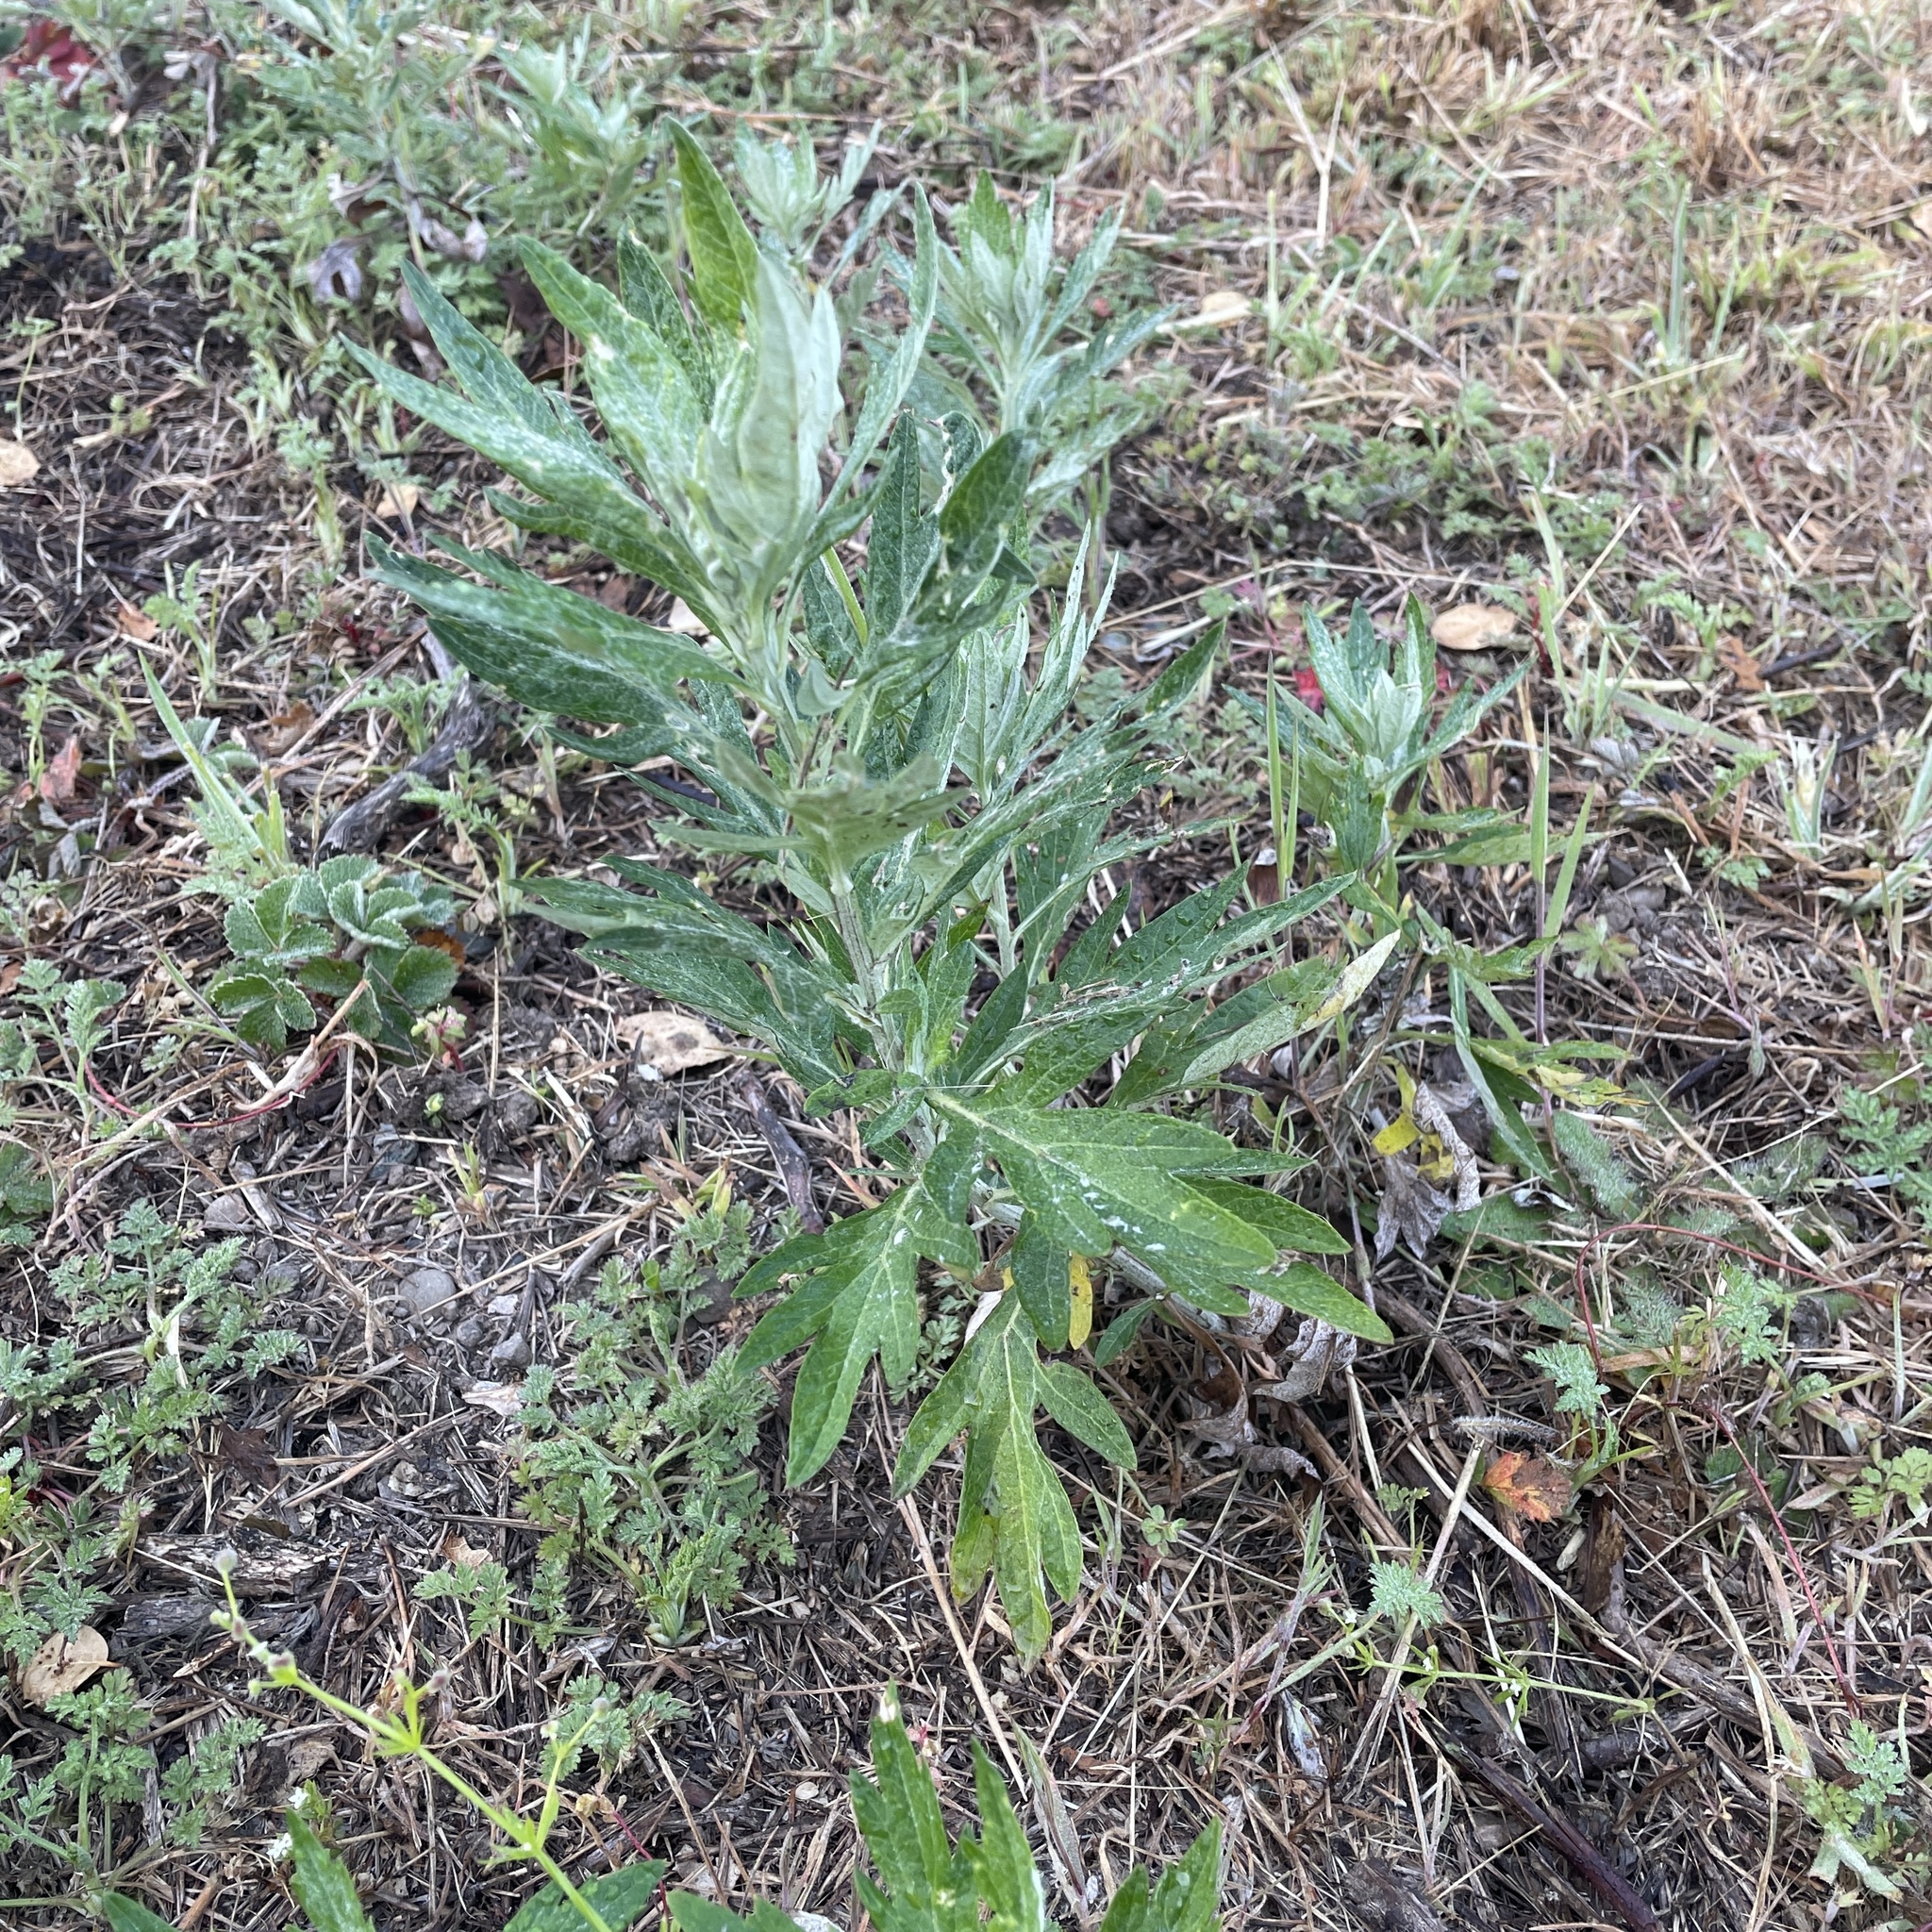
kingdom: Plantae
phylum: Tracheophyta
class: Magnoliopsida
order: Asterales
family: Asteraceae
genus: Artemisia
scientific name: Artemisia douglasiana
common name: Northwest mugwort
